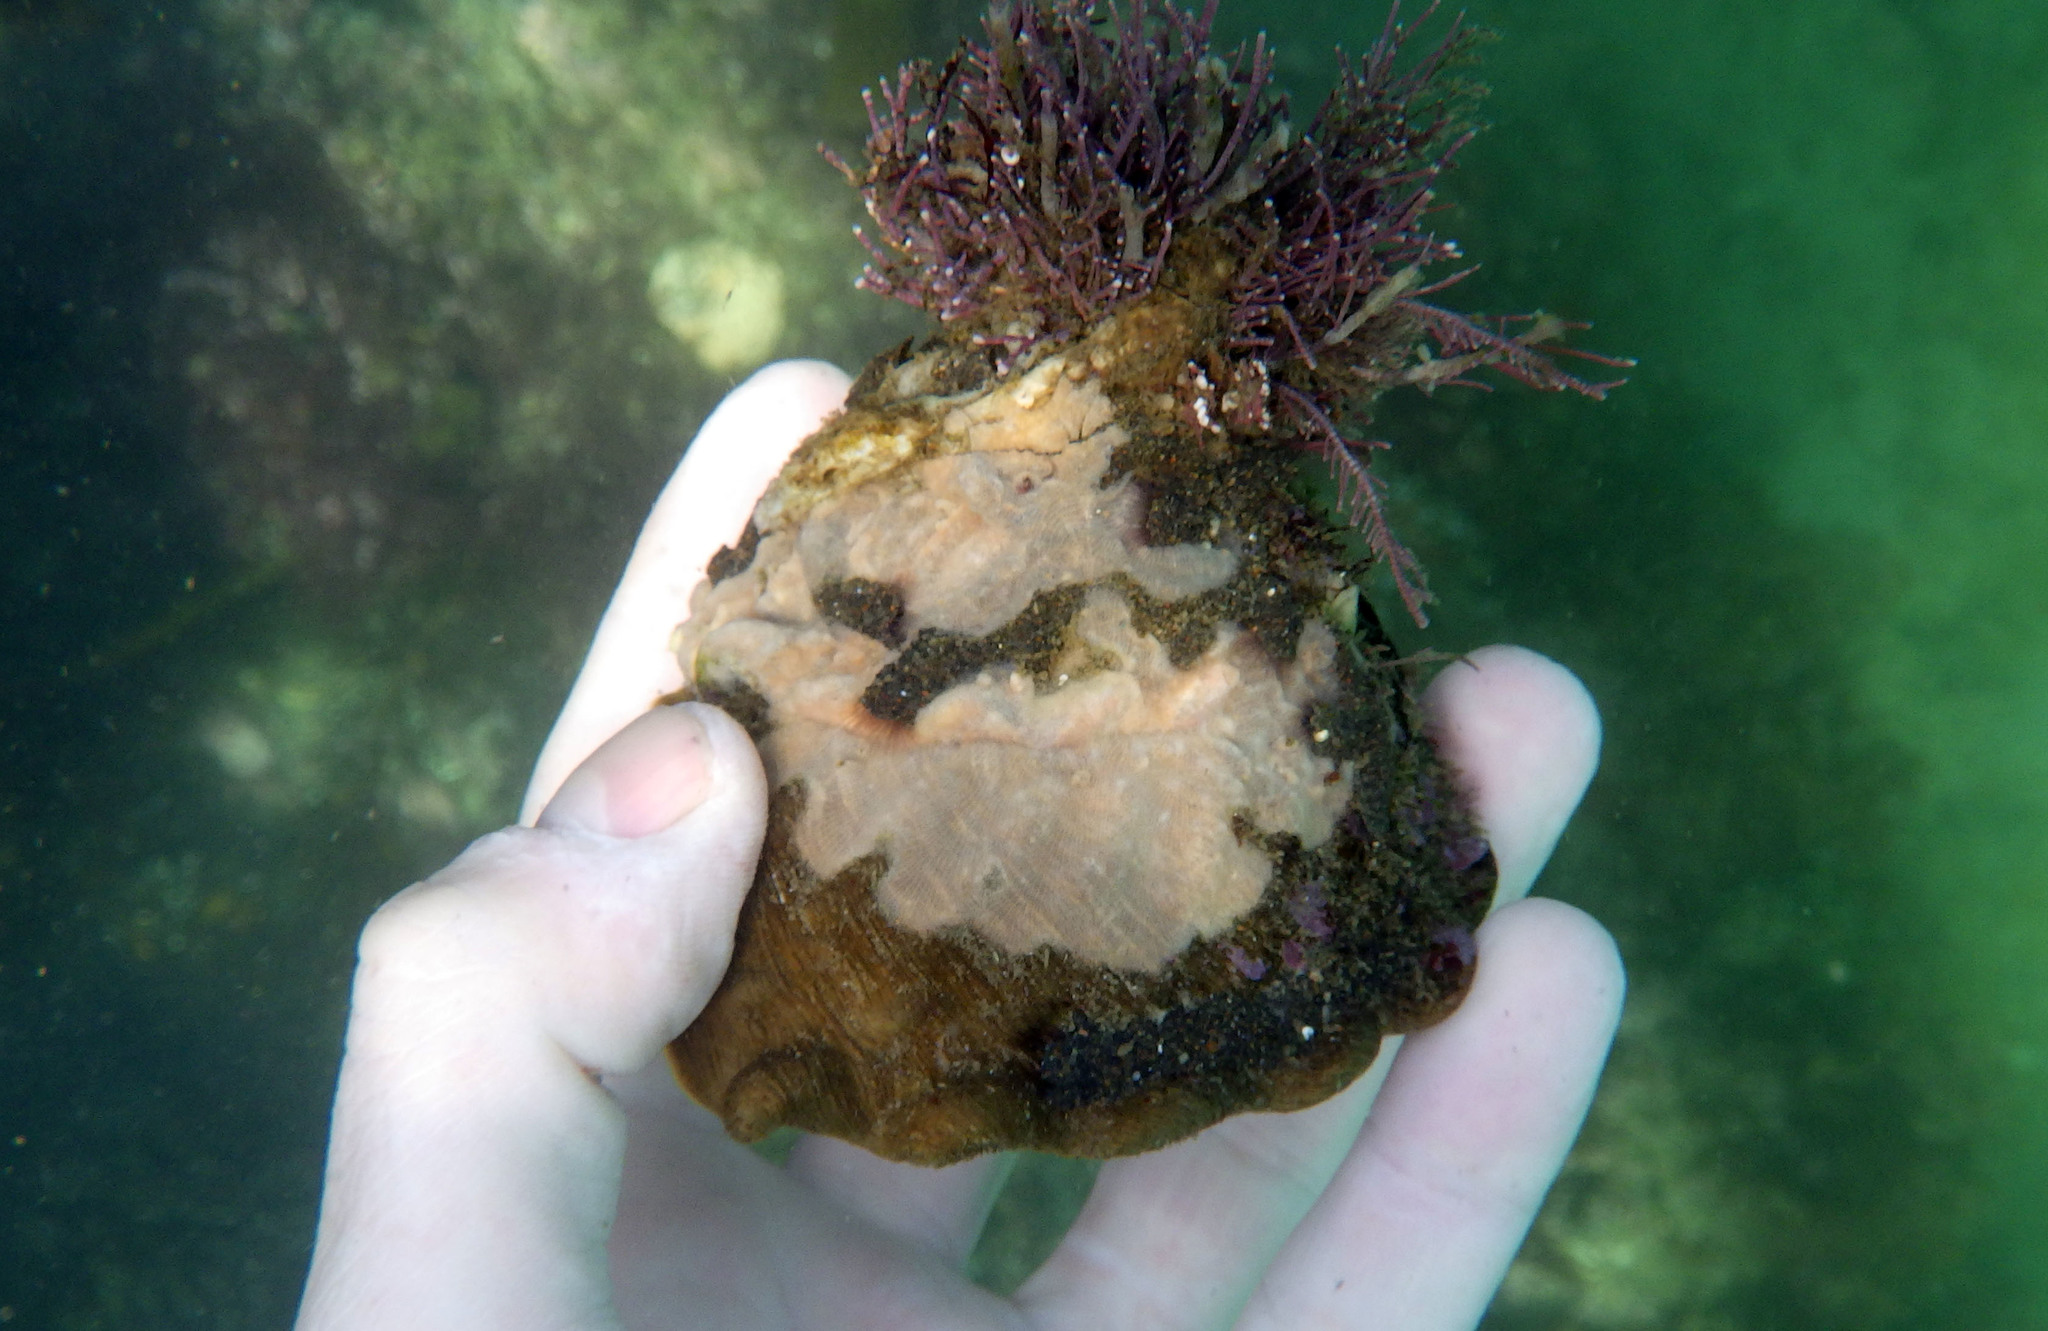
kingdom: Animalia
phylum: Mollusca
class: Gastropoda
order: Trochida
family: Turbinidae
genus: Megastraea
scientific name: Megastraea undosa
